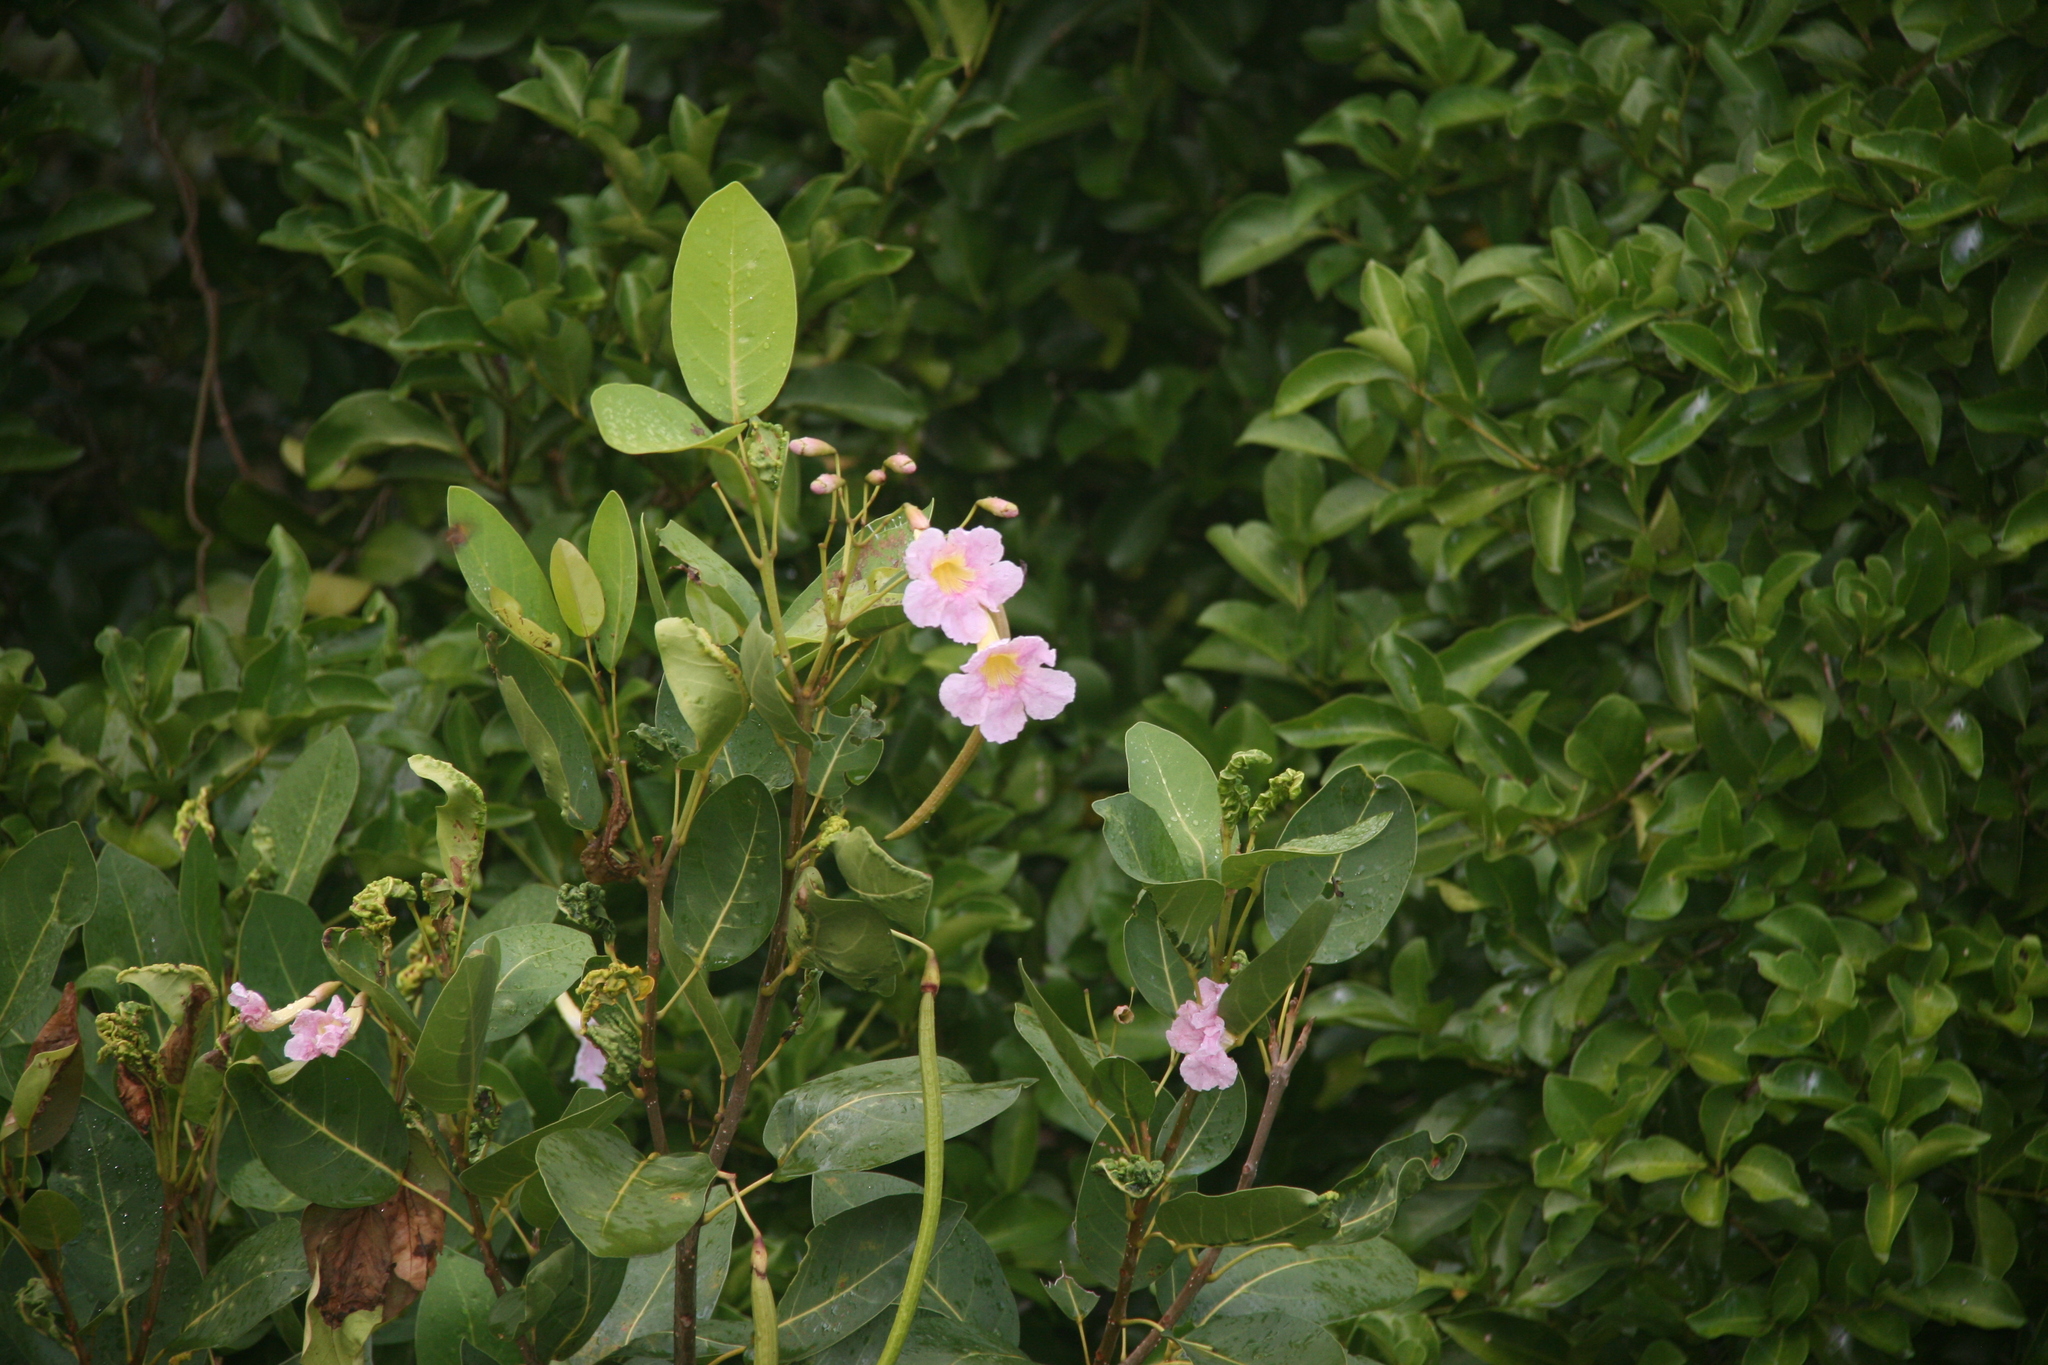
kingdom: Plantae
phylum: Tracheophyta
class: Magnoliopsida
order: Lamiales
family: Bignoniaceae
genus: Tabebuia
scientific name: Tabebuia pallida
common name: Cuban pink trumpet-tree
